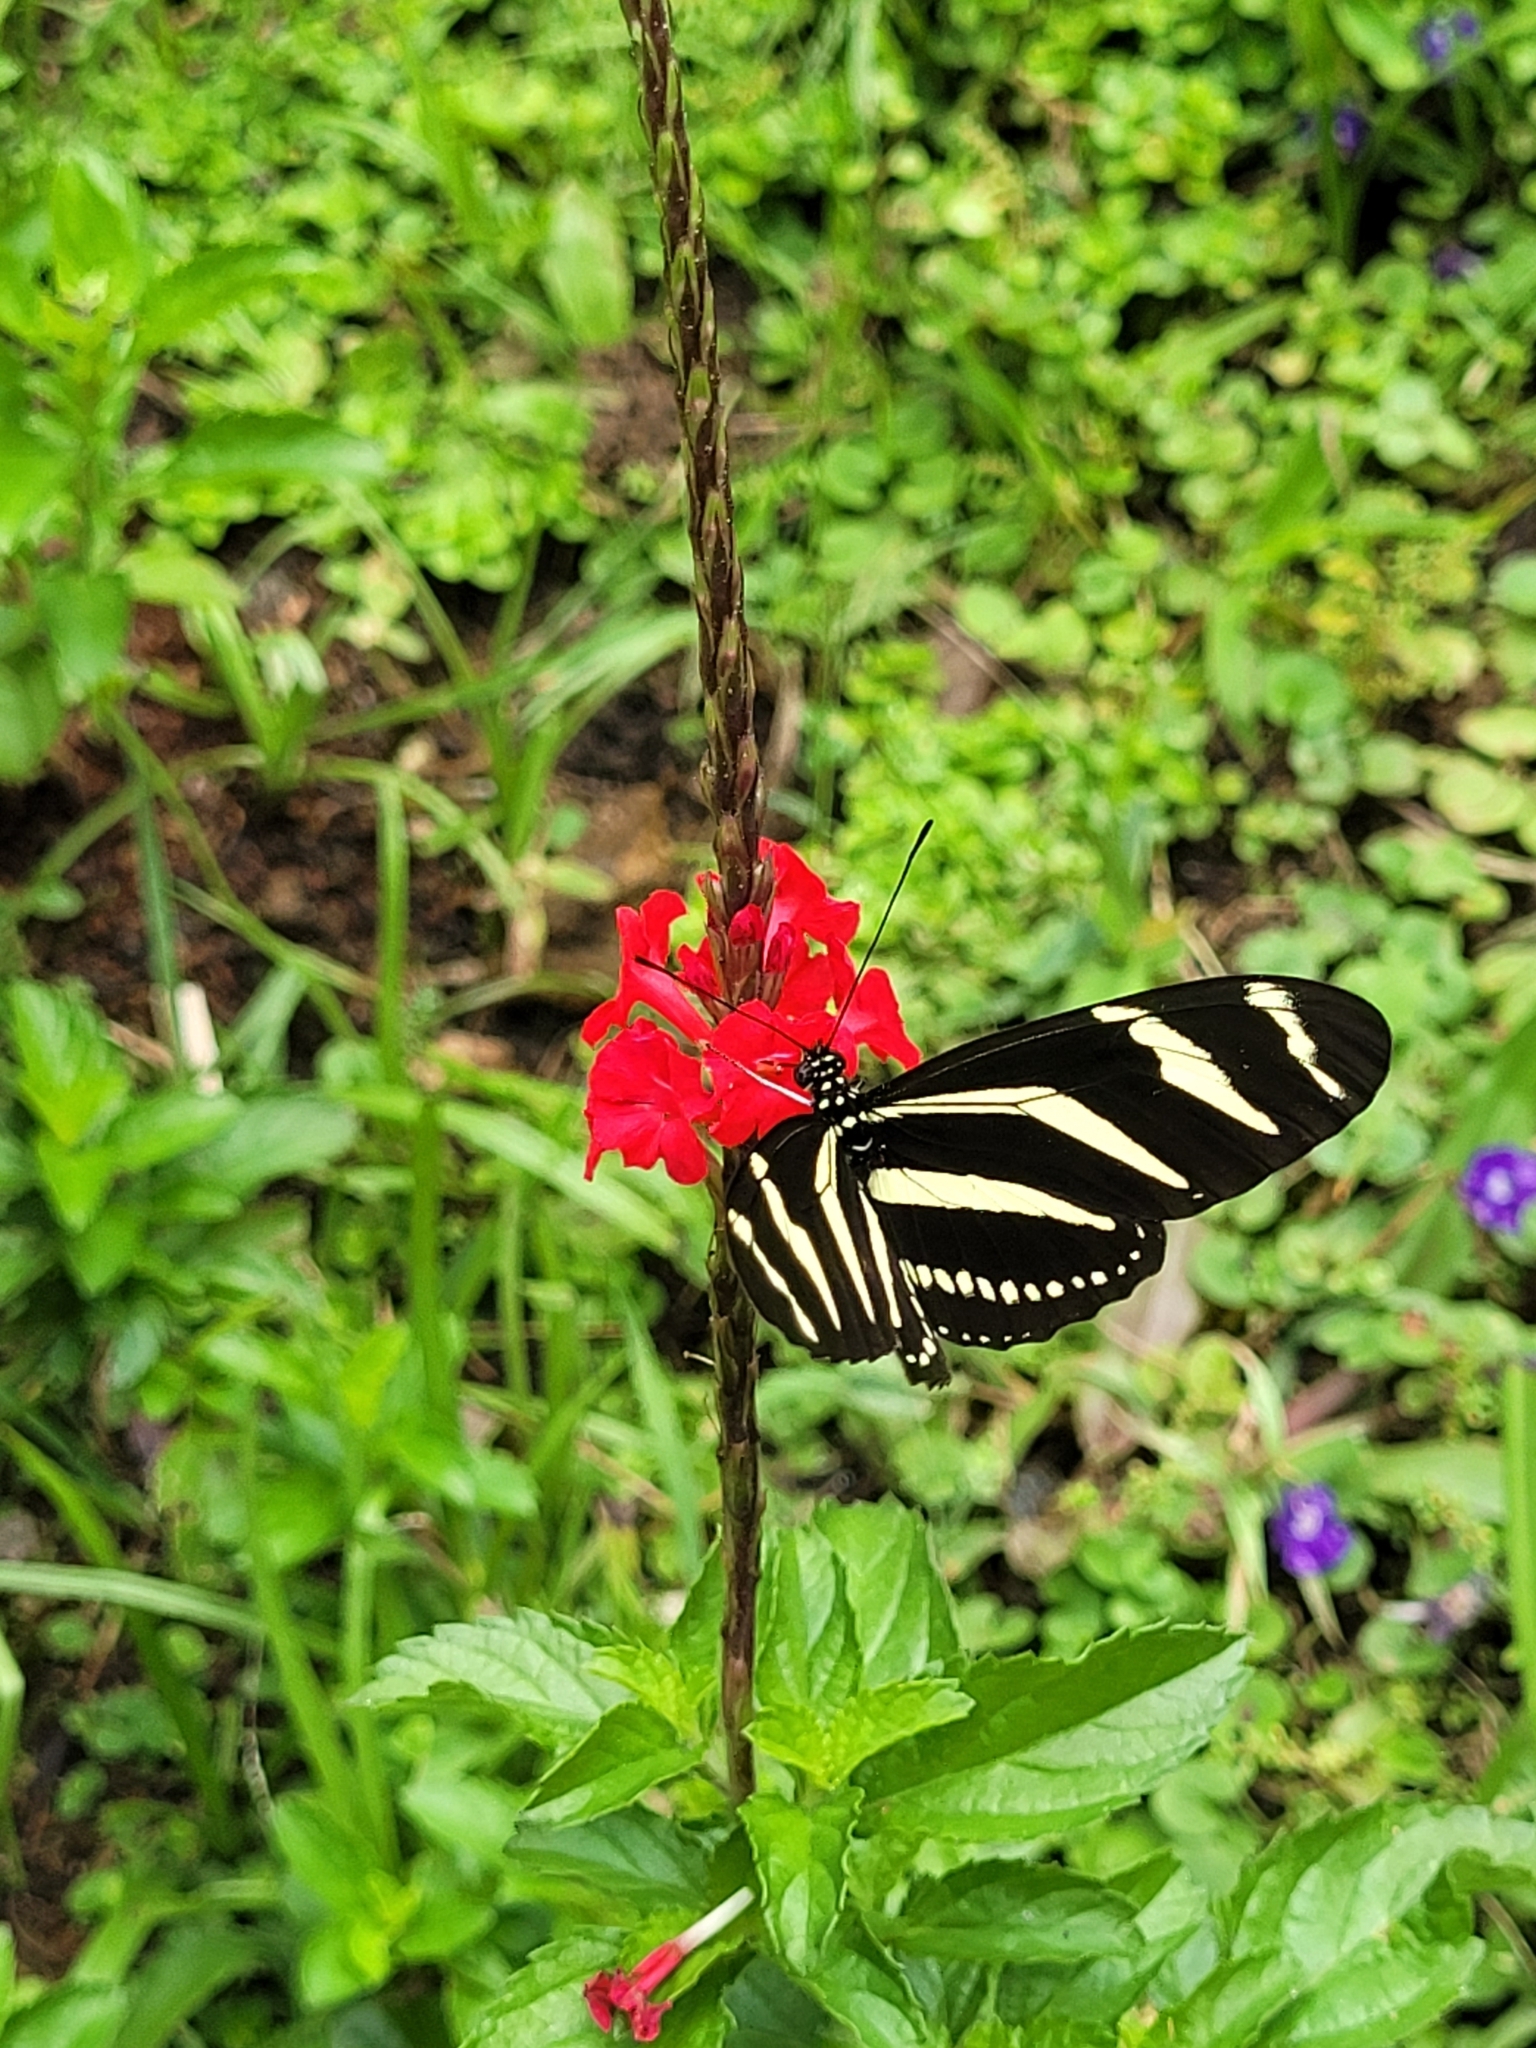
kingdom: Animalia
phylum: Arthropoda
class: Insecta
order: Lepidoptera
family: Nymphalidae
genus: Heliconius
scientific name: Heliconius charithonia
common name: Zebra long wing
